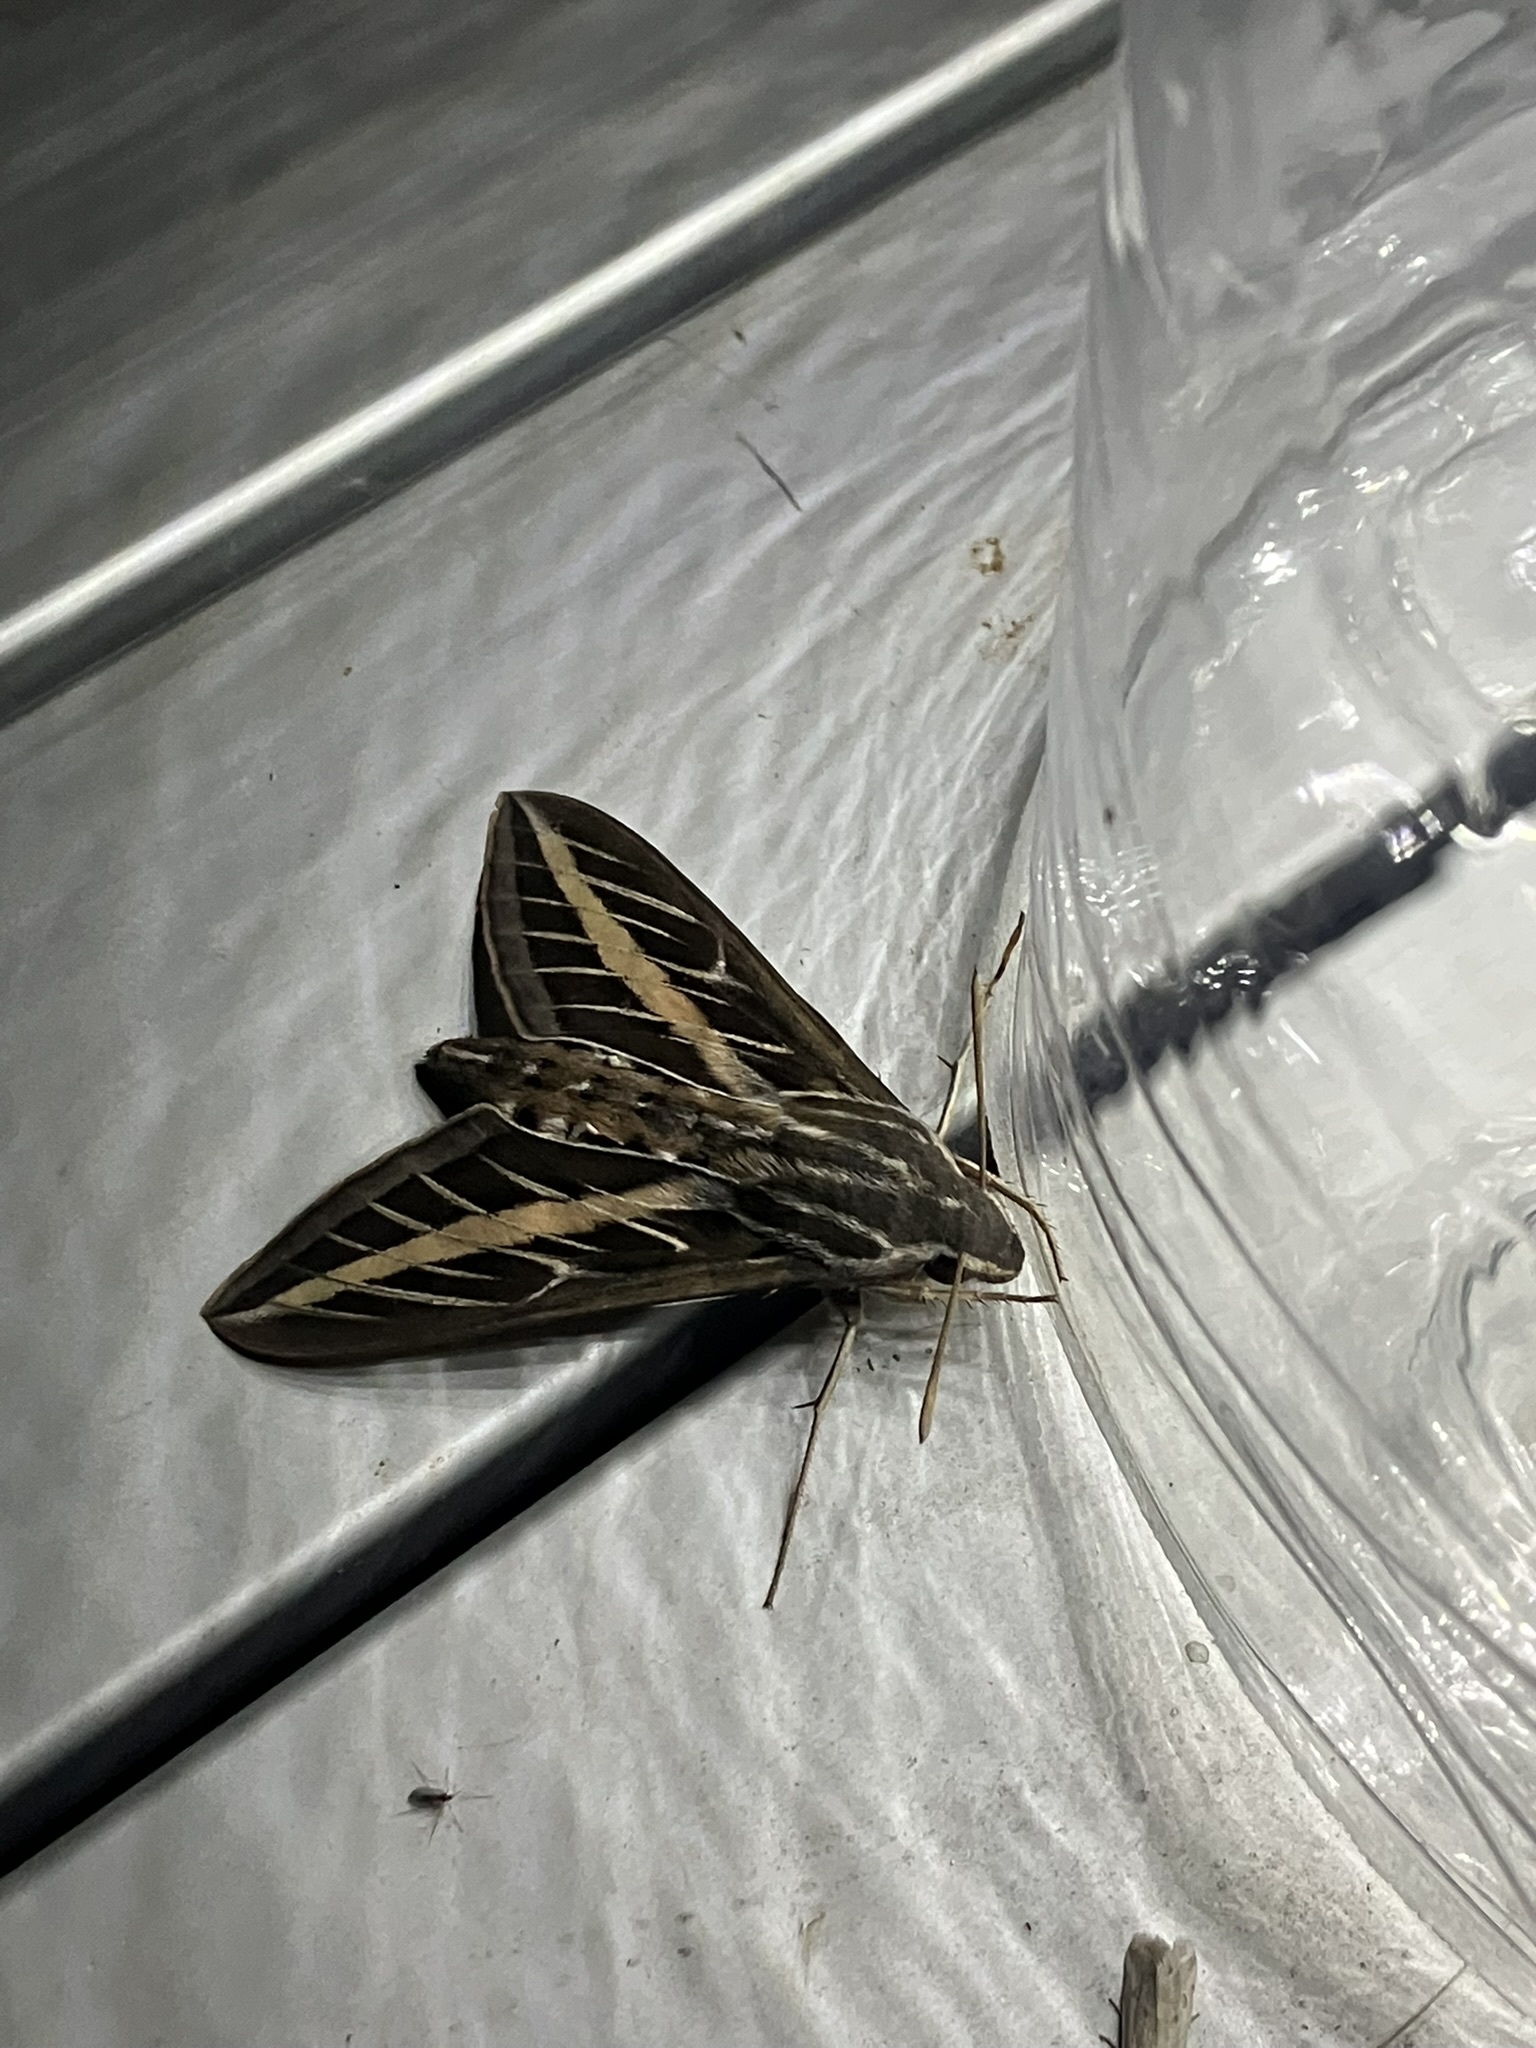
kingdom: Animalia
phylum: Arthropoda
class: Insecta
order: Lepidoptera
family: Sphingidae
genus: Hyles
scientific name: Hyles lineata
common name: White-lined sphinx
